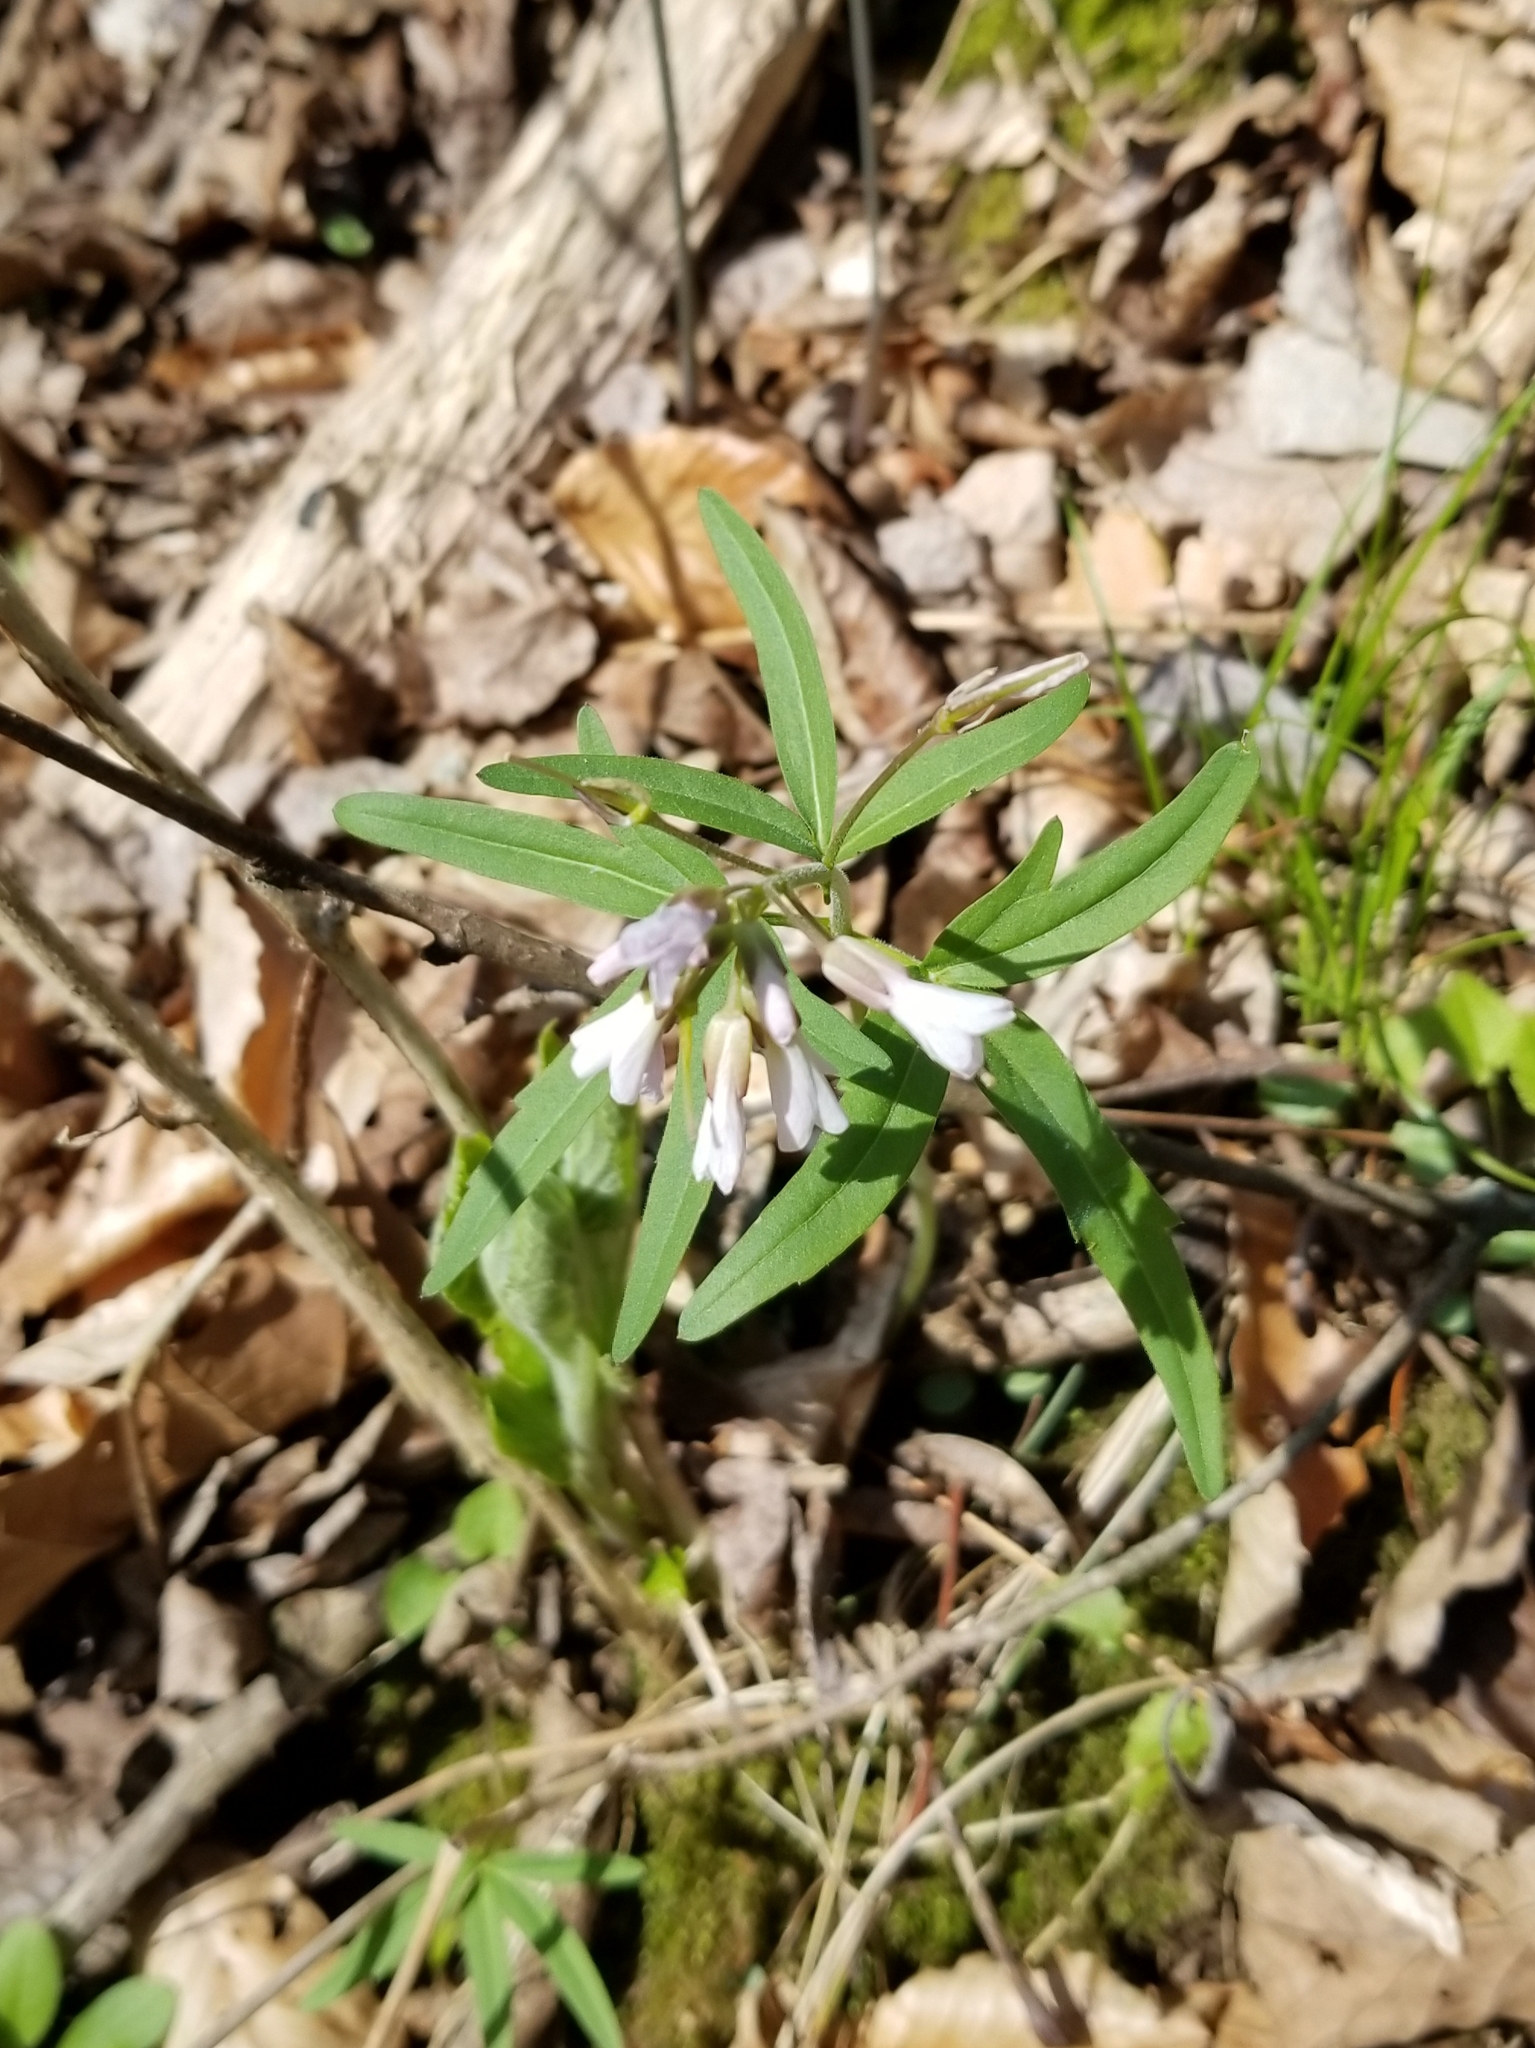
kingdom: Plantae
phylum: Tracheophyta
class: Magnoliopsida
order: Brassicales
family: Brassicaceae
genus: Cardamine
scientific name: Cardamine concatenata
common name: Cut-leaf toothcup
